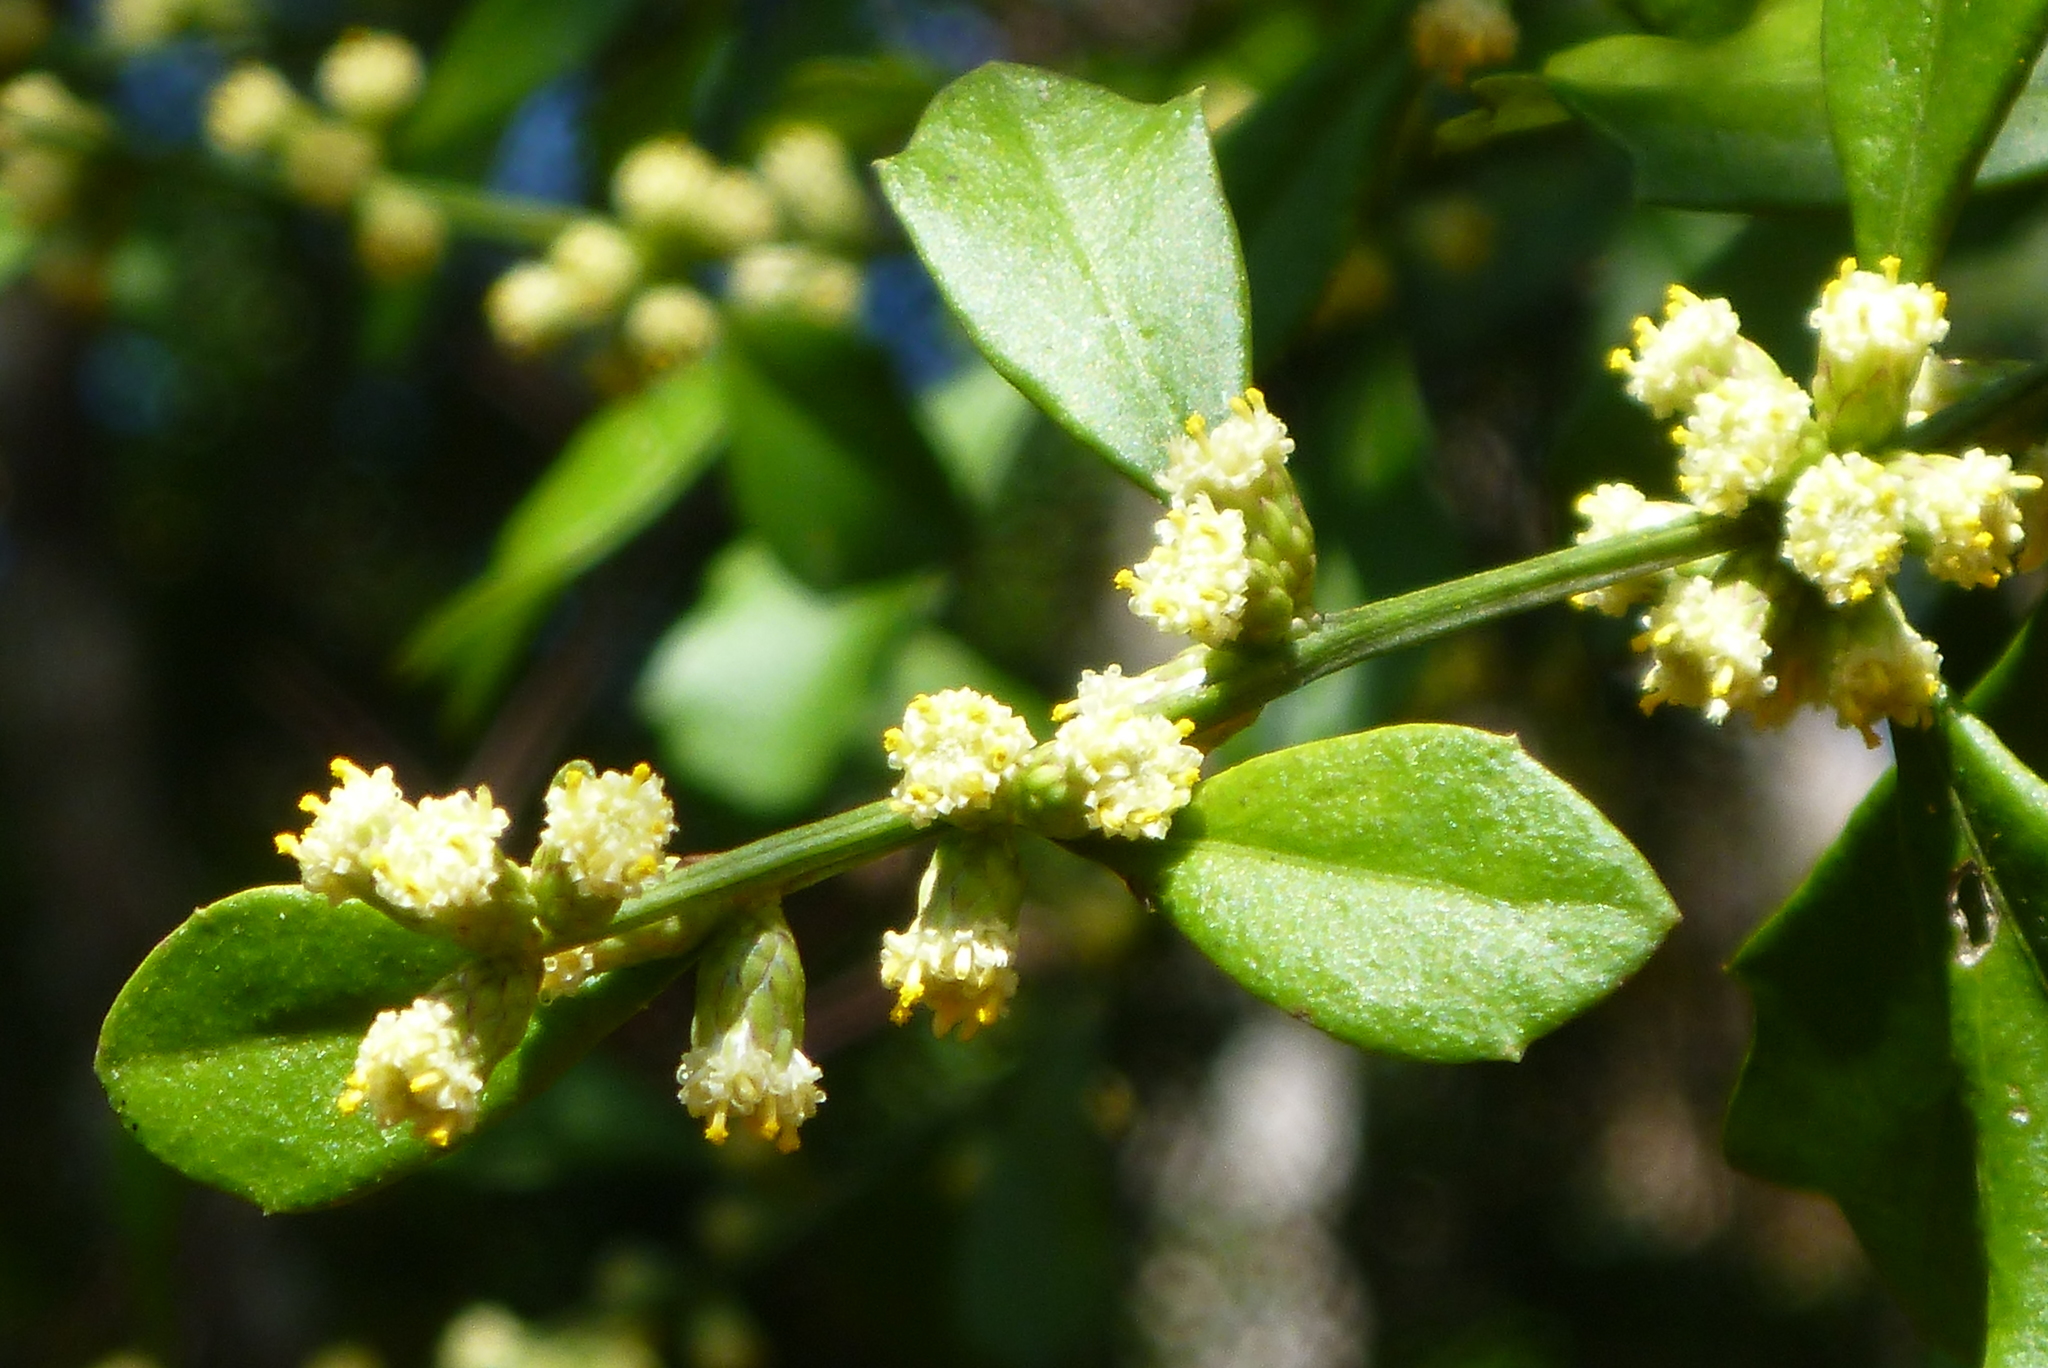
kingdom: Plantae
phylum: Tracheophyta
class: Magnoliopsida
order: Asterales
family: Asteraceae
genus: Baccharis
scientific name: Baccharis glomeruliflora
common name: Silverling groundsel bush
